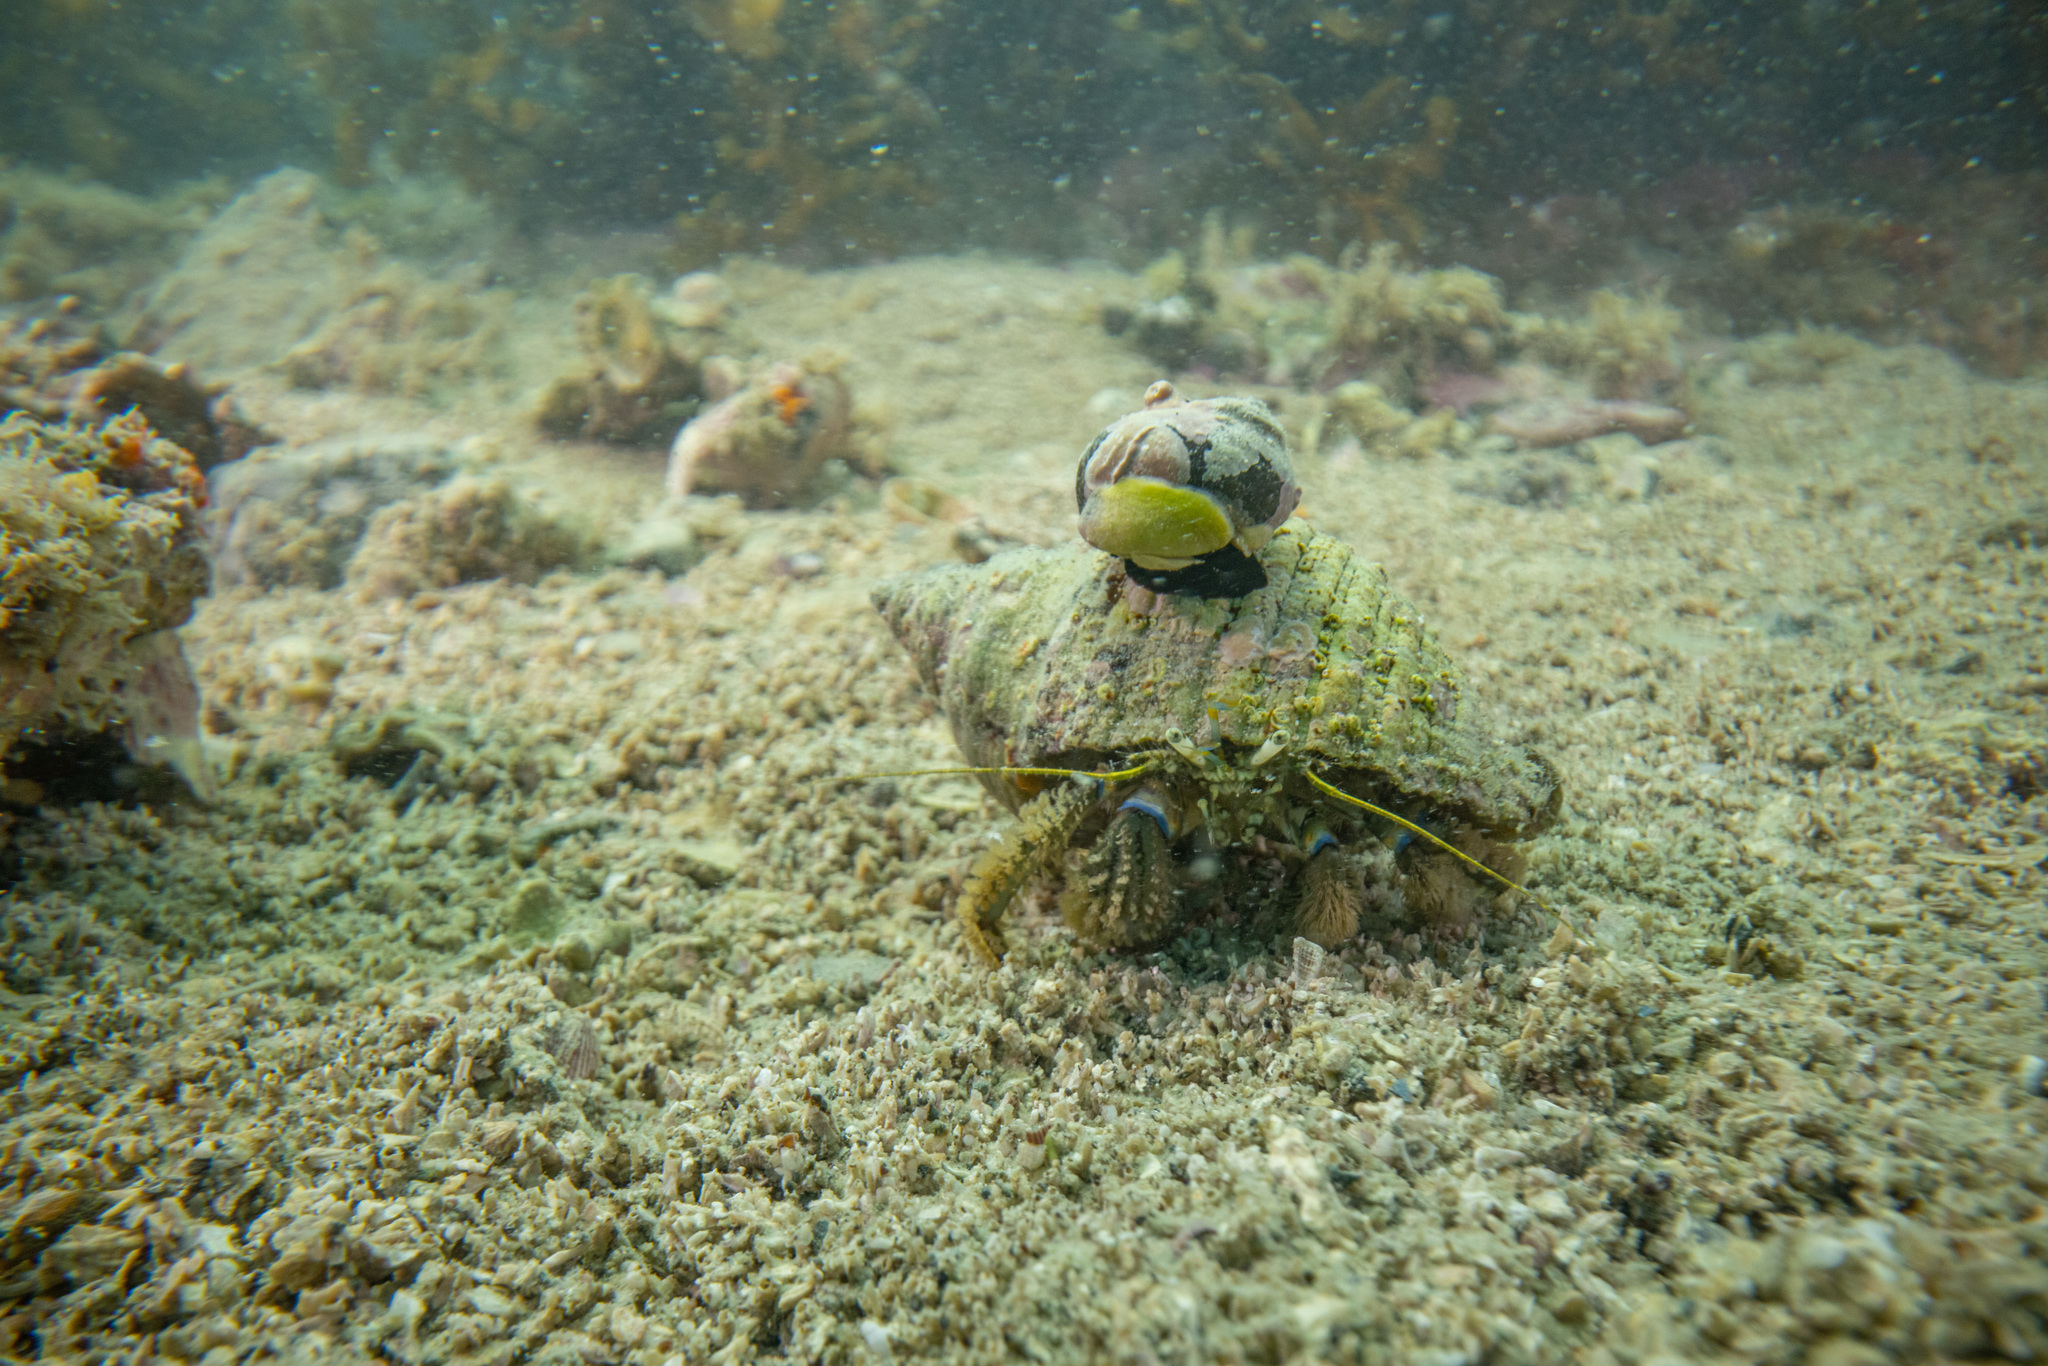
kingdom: Animalia
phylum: Arthropoda
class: Malacostraca
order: Decapoda
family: Paguridae
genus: Pagurus
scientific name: Pagurus novizealandiae
